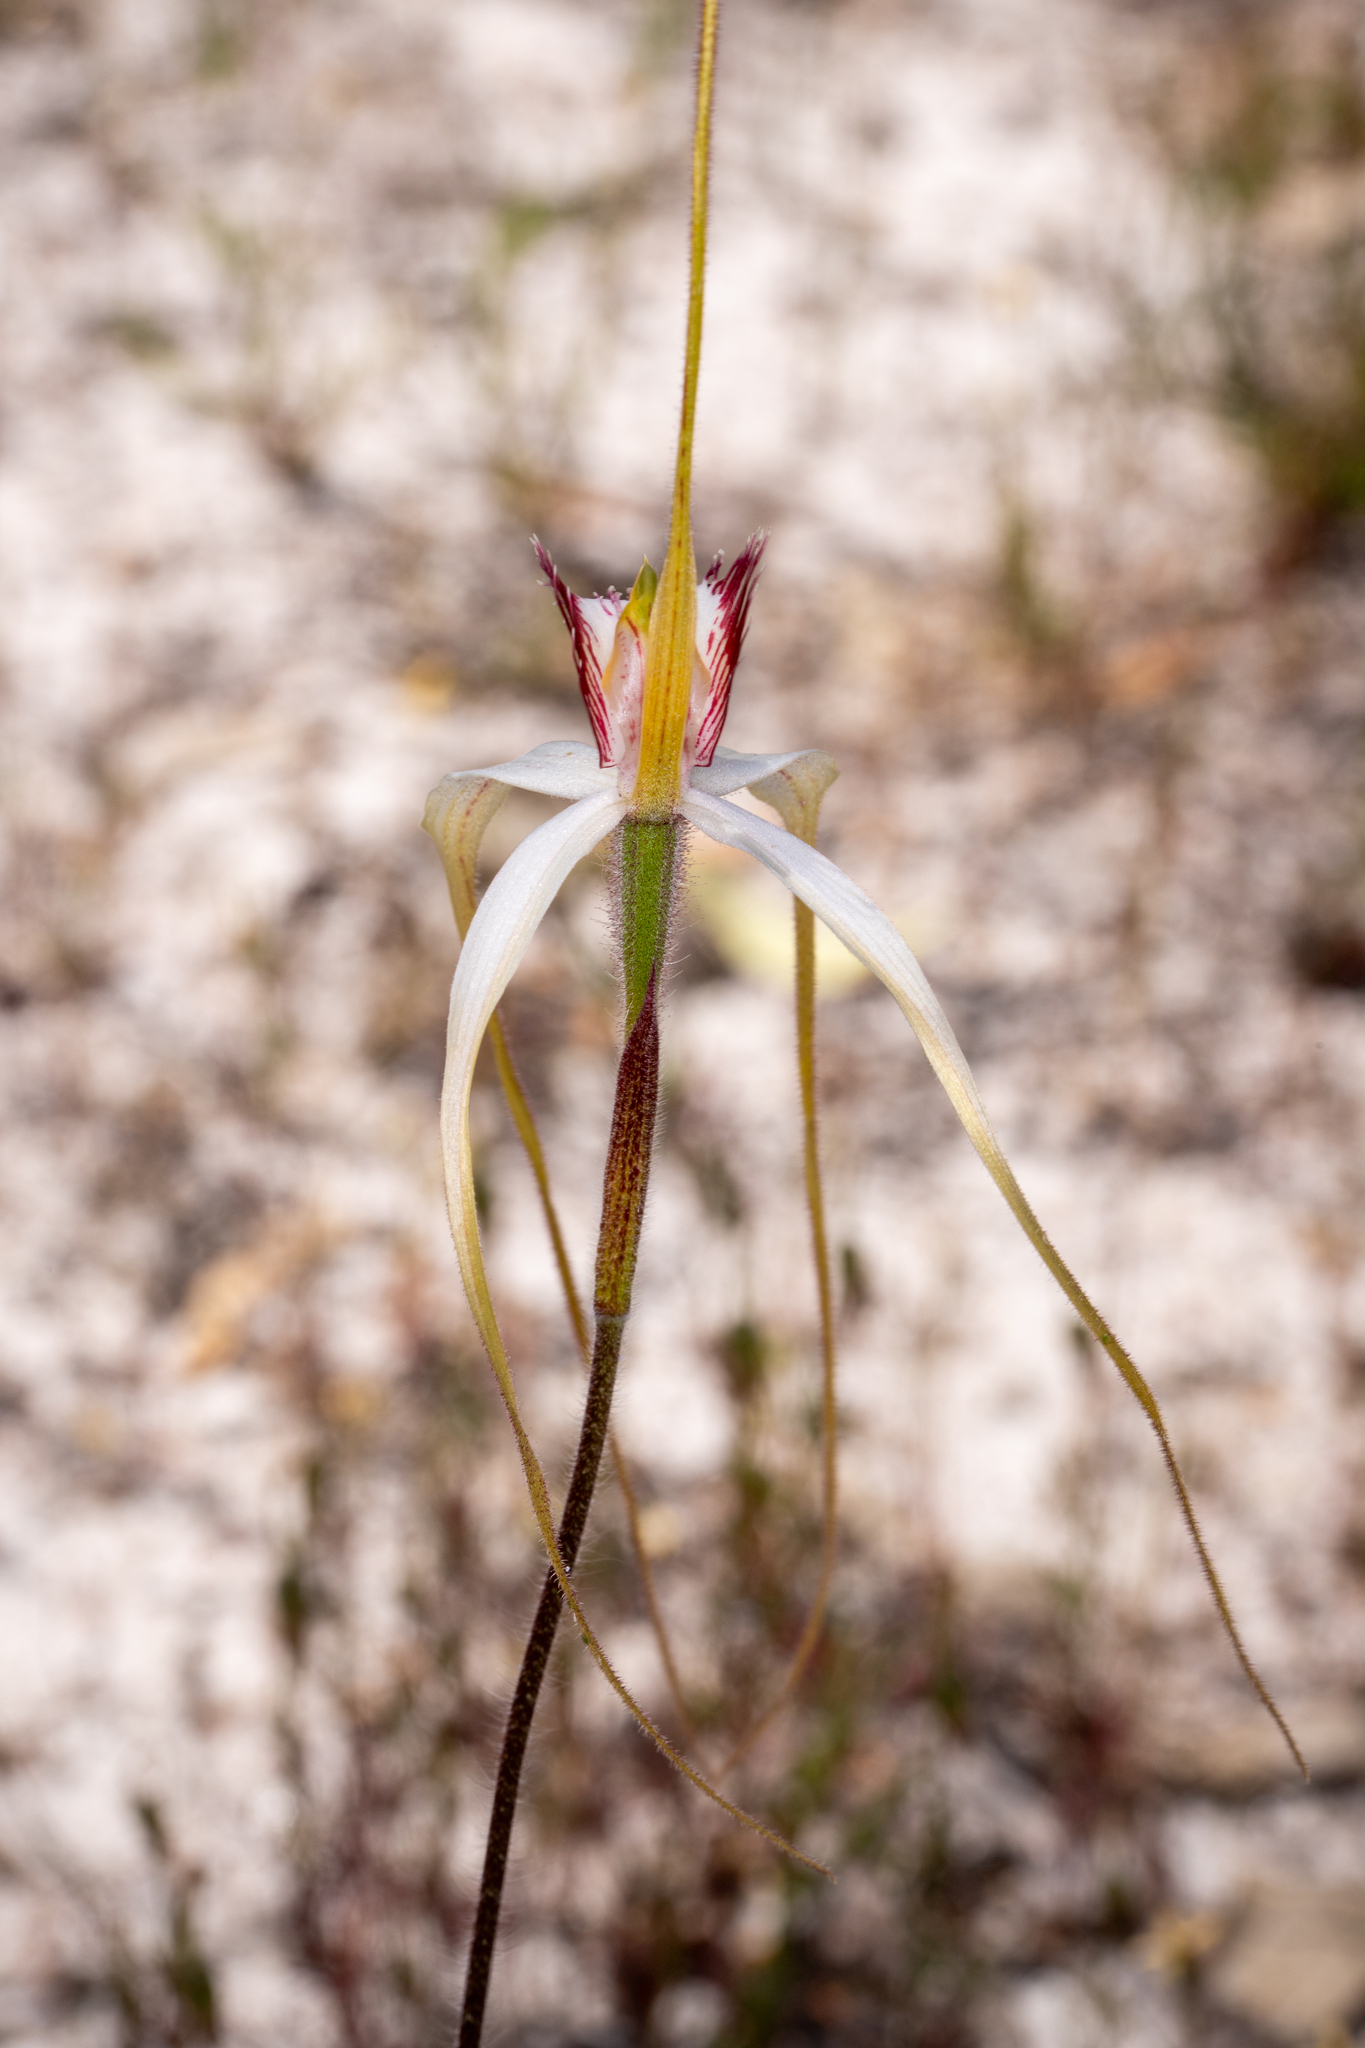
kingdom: Plantae
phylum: Tracheophyta
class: Liliopsida
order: Asparagales
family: Orchidaceae
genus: Caladenia
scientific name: Caladenia longicauda
